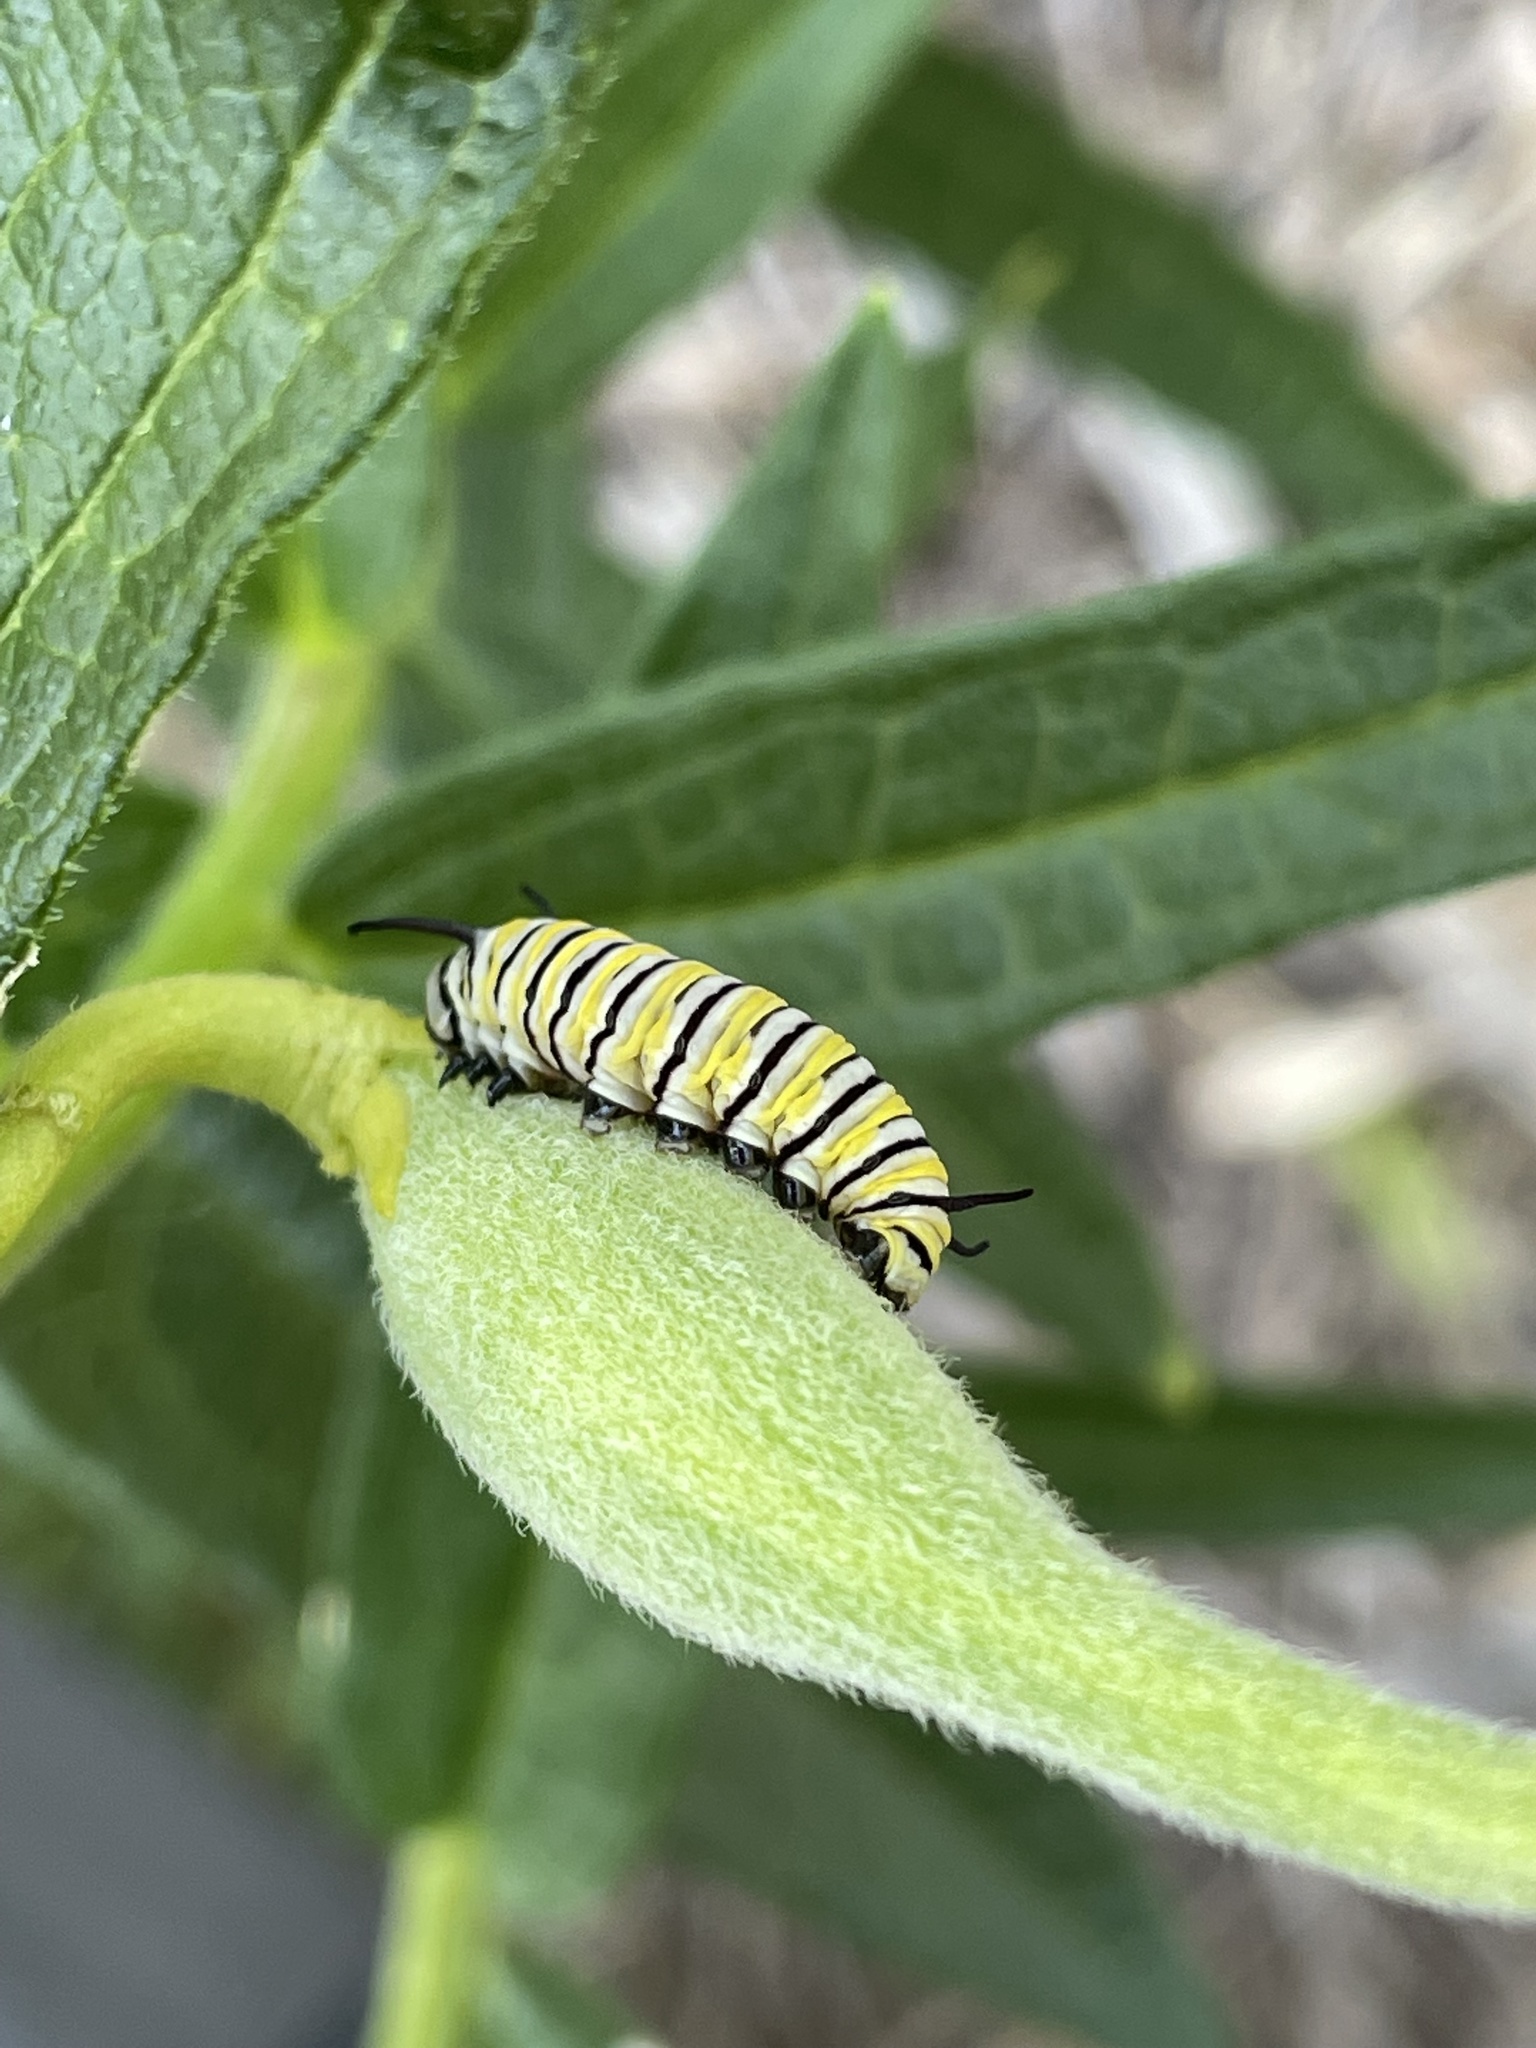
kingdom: Animalia
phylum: Arthropoda
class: Insecta
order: Lepidoptera
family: Nymphalidae
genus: Danaus
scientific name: Danaus plexippus
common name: Monarch
